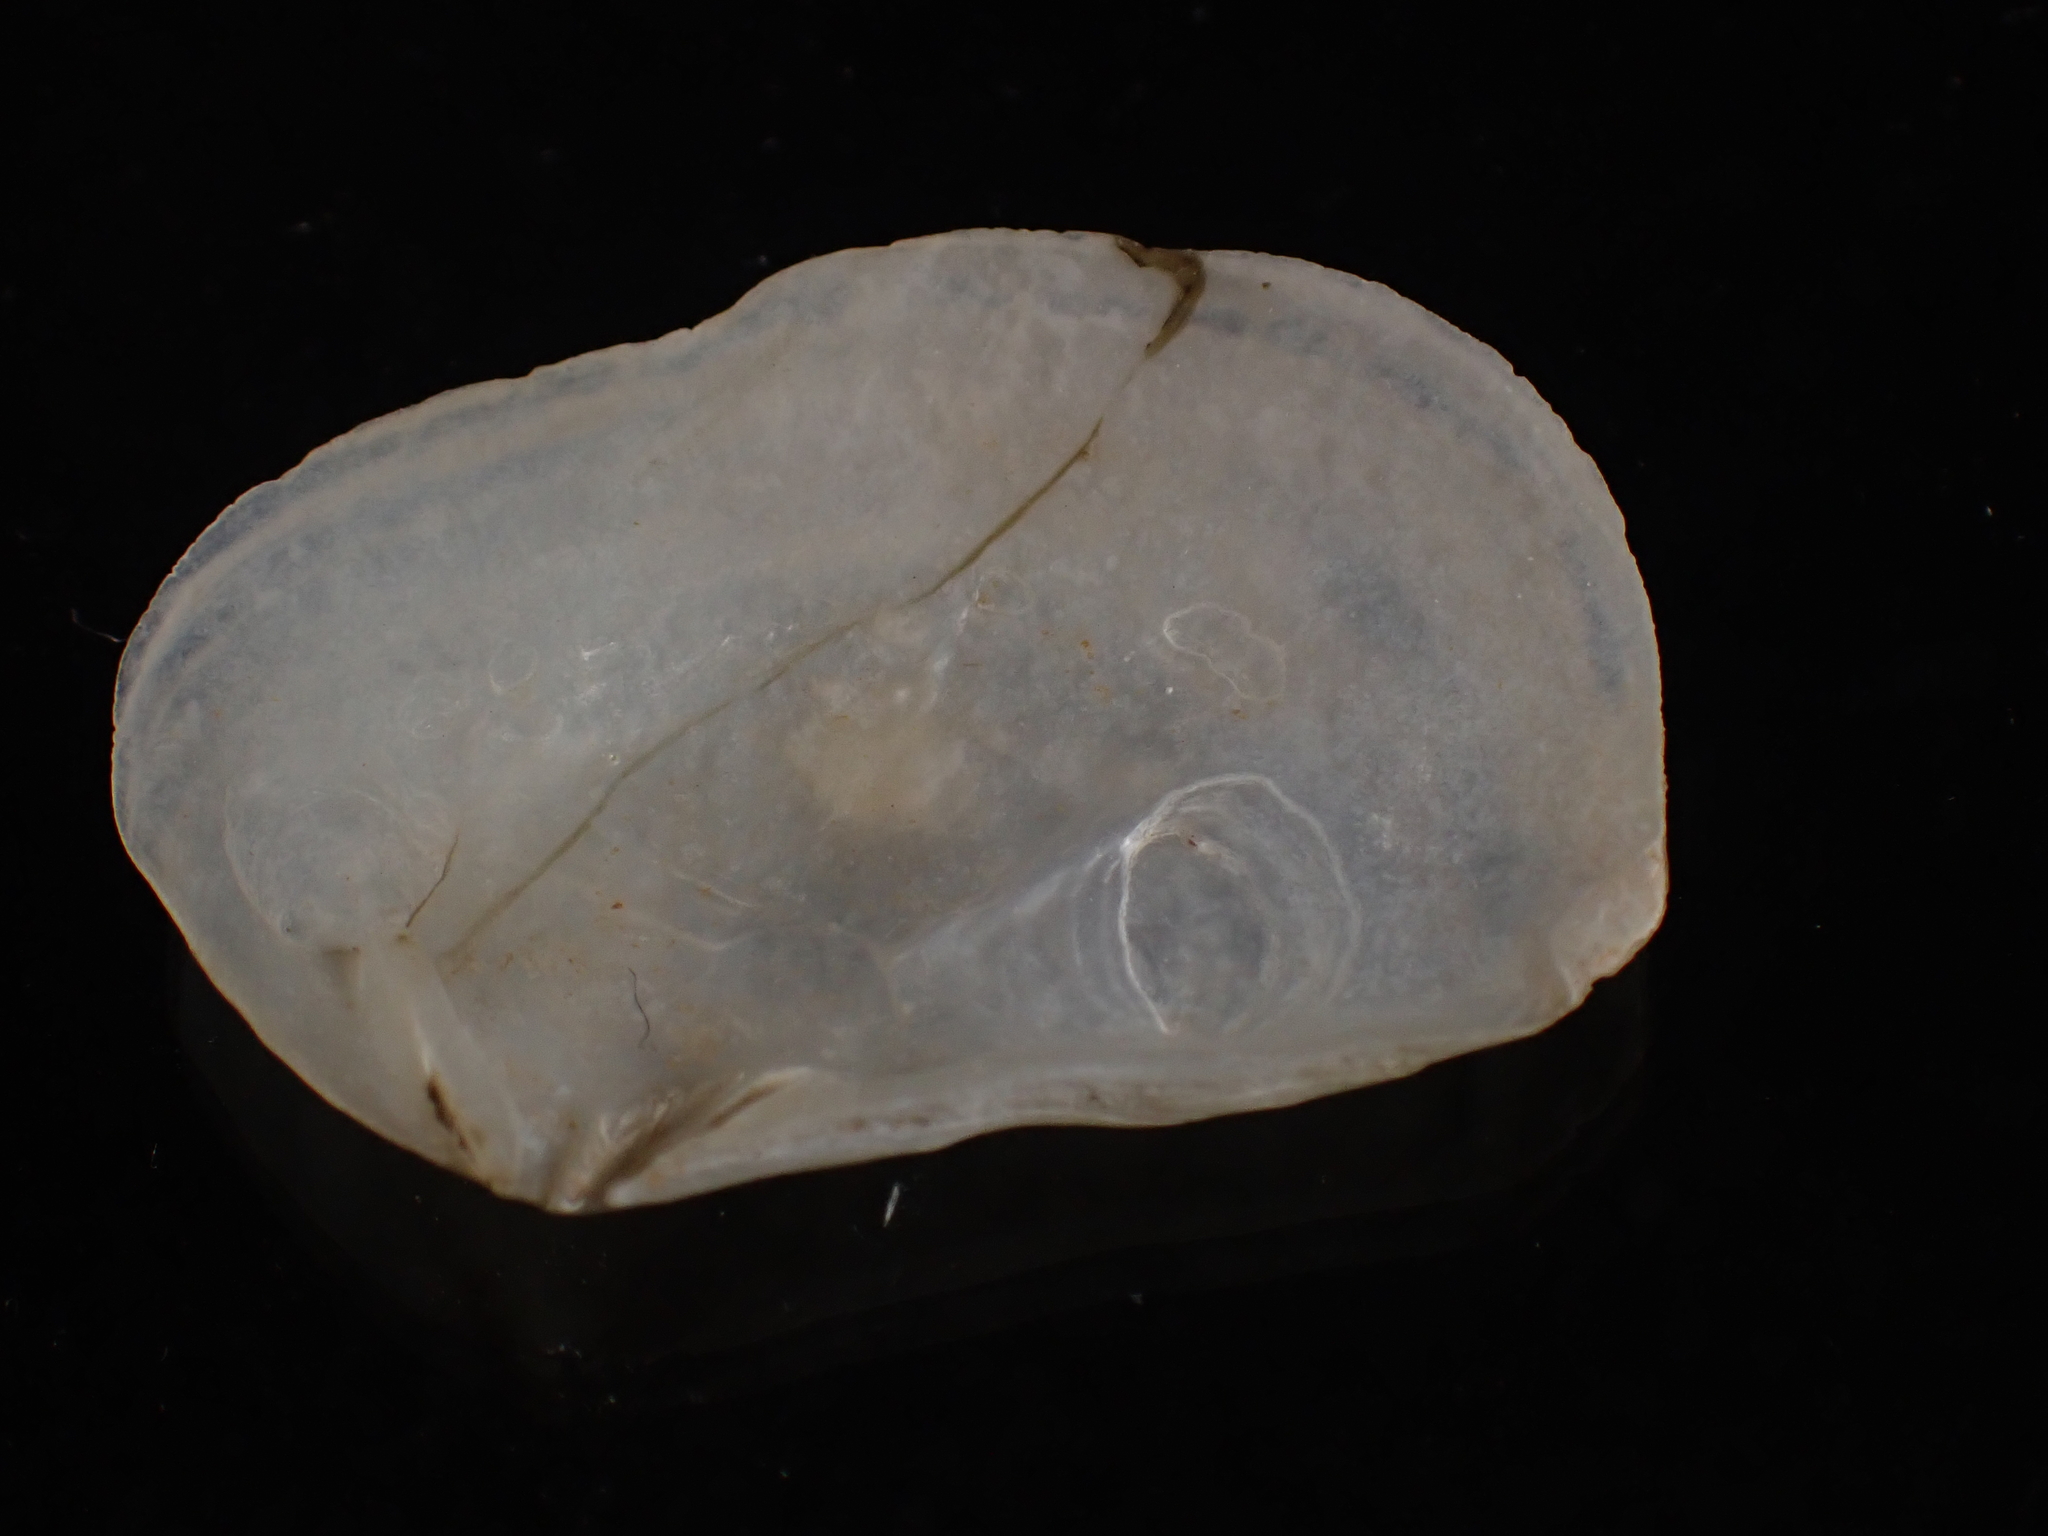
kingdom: Animalia
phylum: Mollusca
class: Bivalvia
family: Pandoridae
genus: Pandora
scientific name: Pandora gouldiana
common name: Rounded pandora
